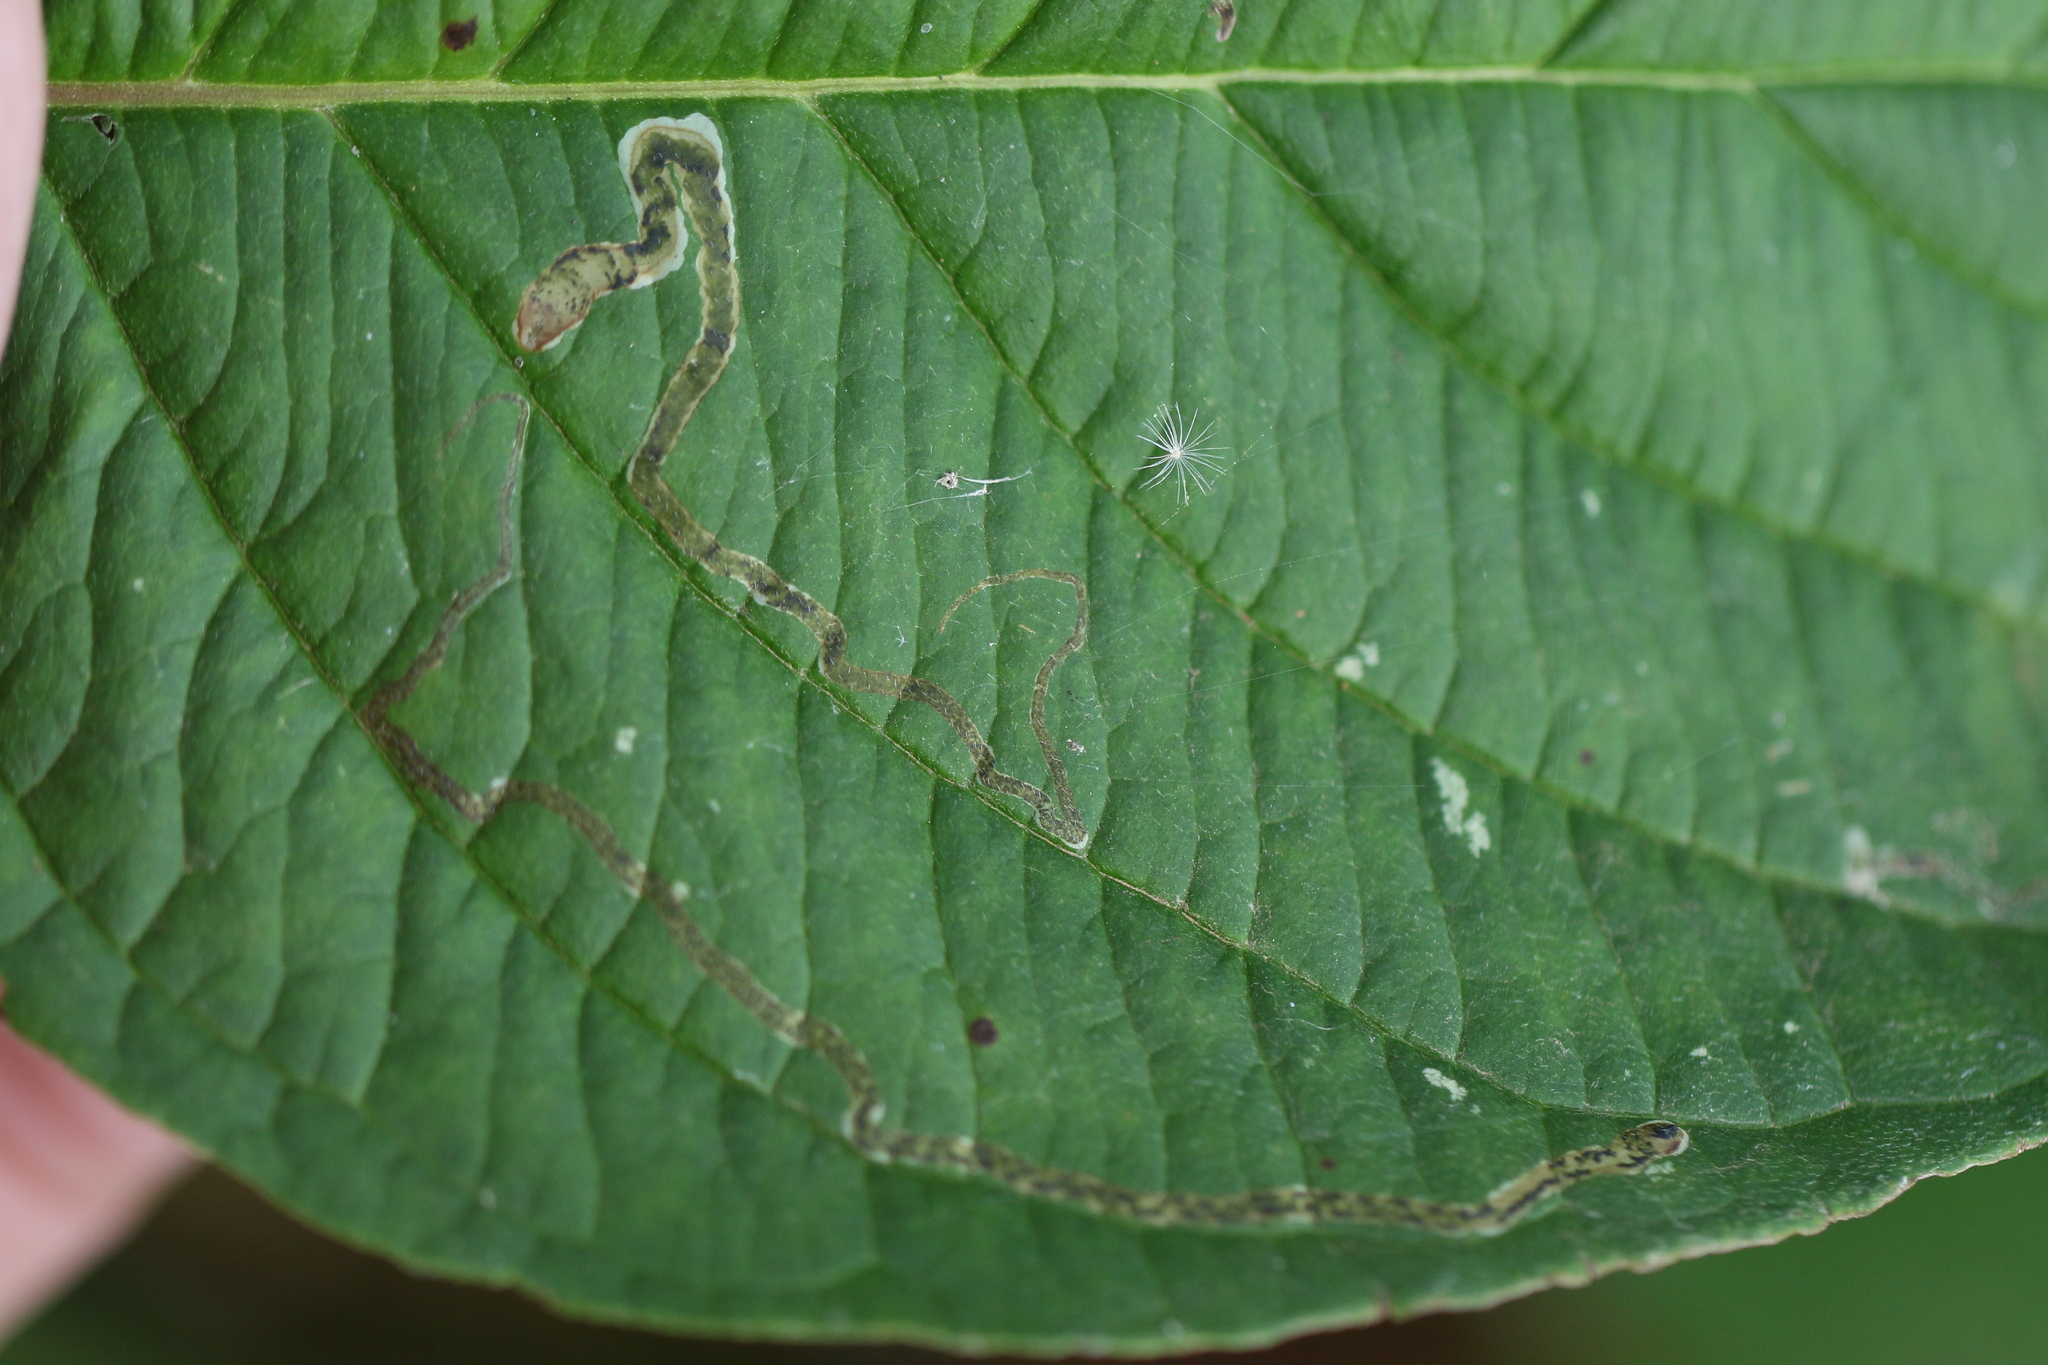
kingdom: Animalia
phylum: Arthropoda
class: Insecta
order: Diptera
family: Agromyzidae
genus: Phytomyza
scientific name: Phytomyza agromyzina
